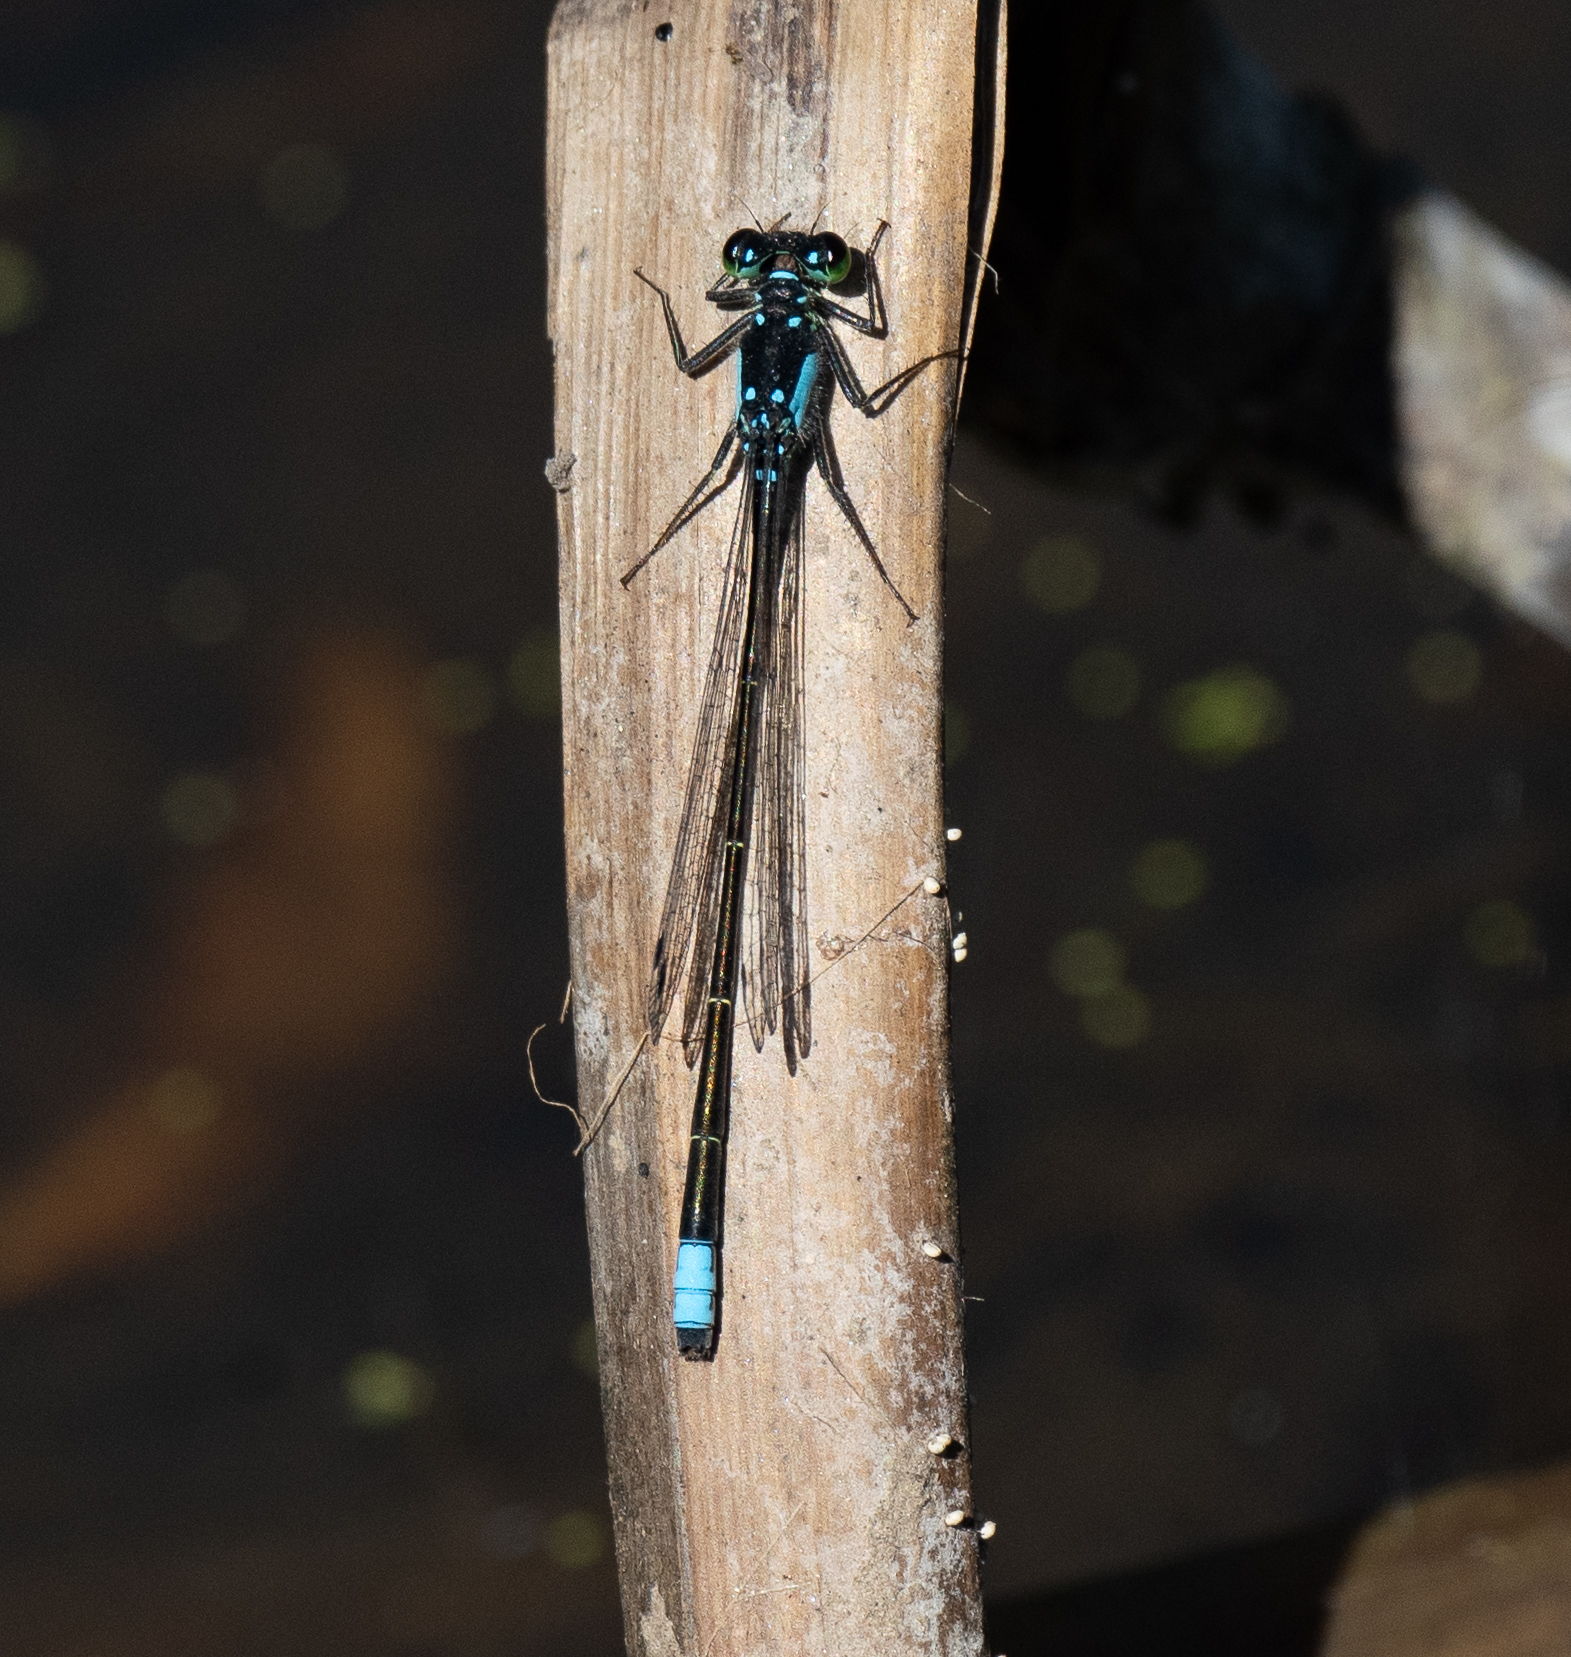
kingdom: Animalia
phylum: Arthropoda
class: Insecta
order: Odonata
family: Coenagrionidae
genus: Ischnura
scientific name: Ischnura cervula
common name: Pacific forktail
